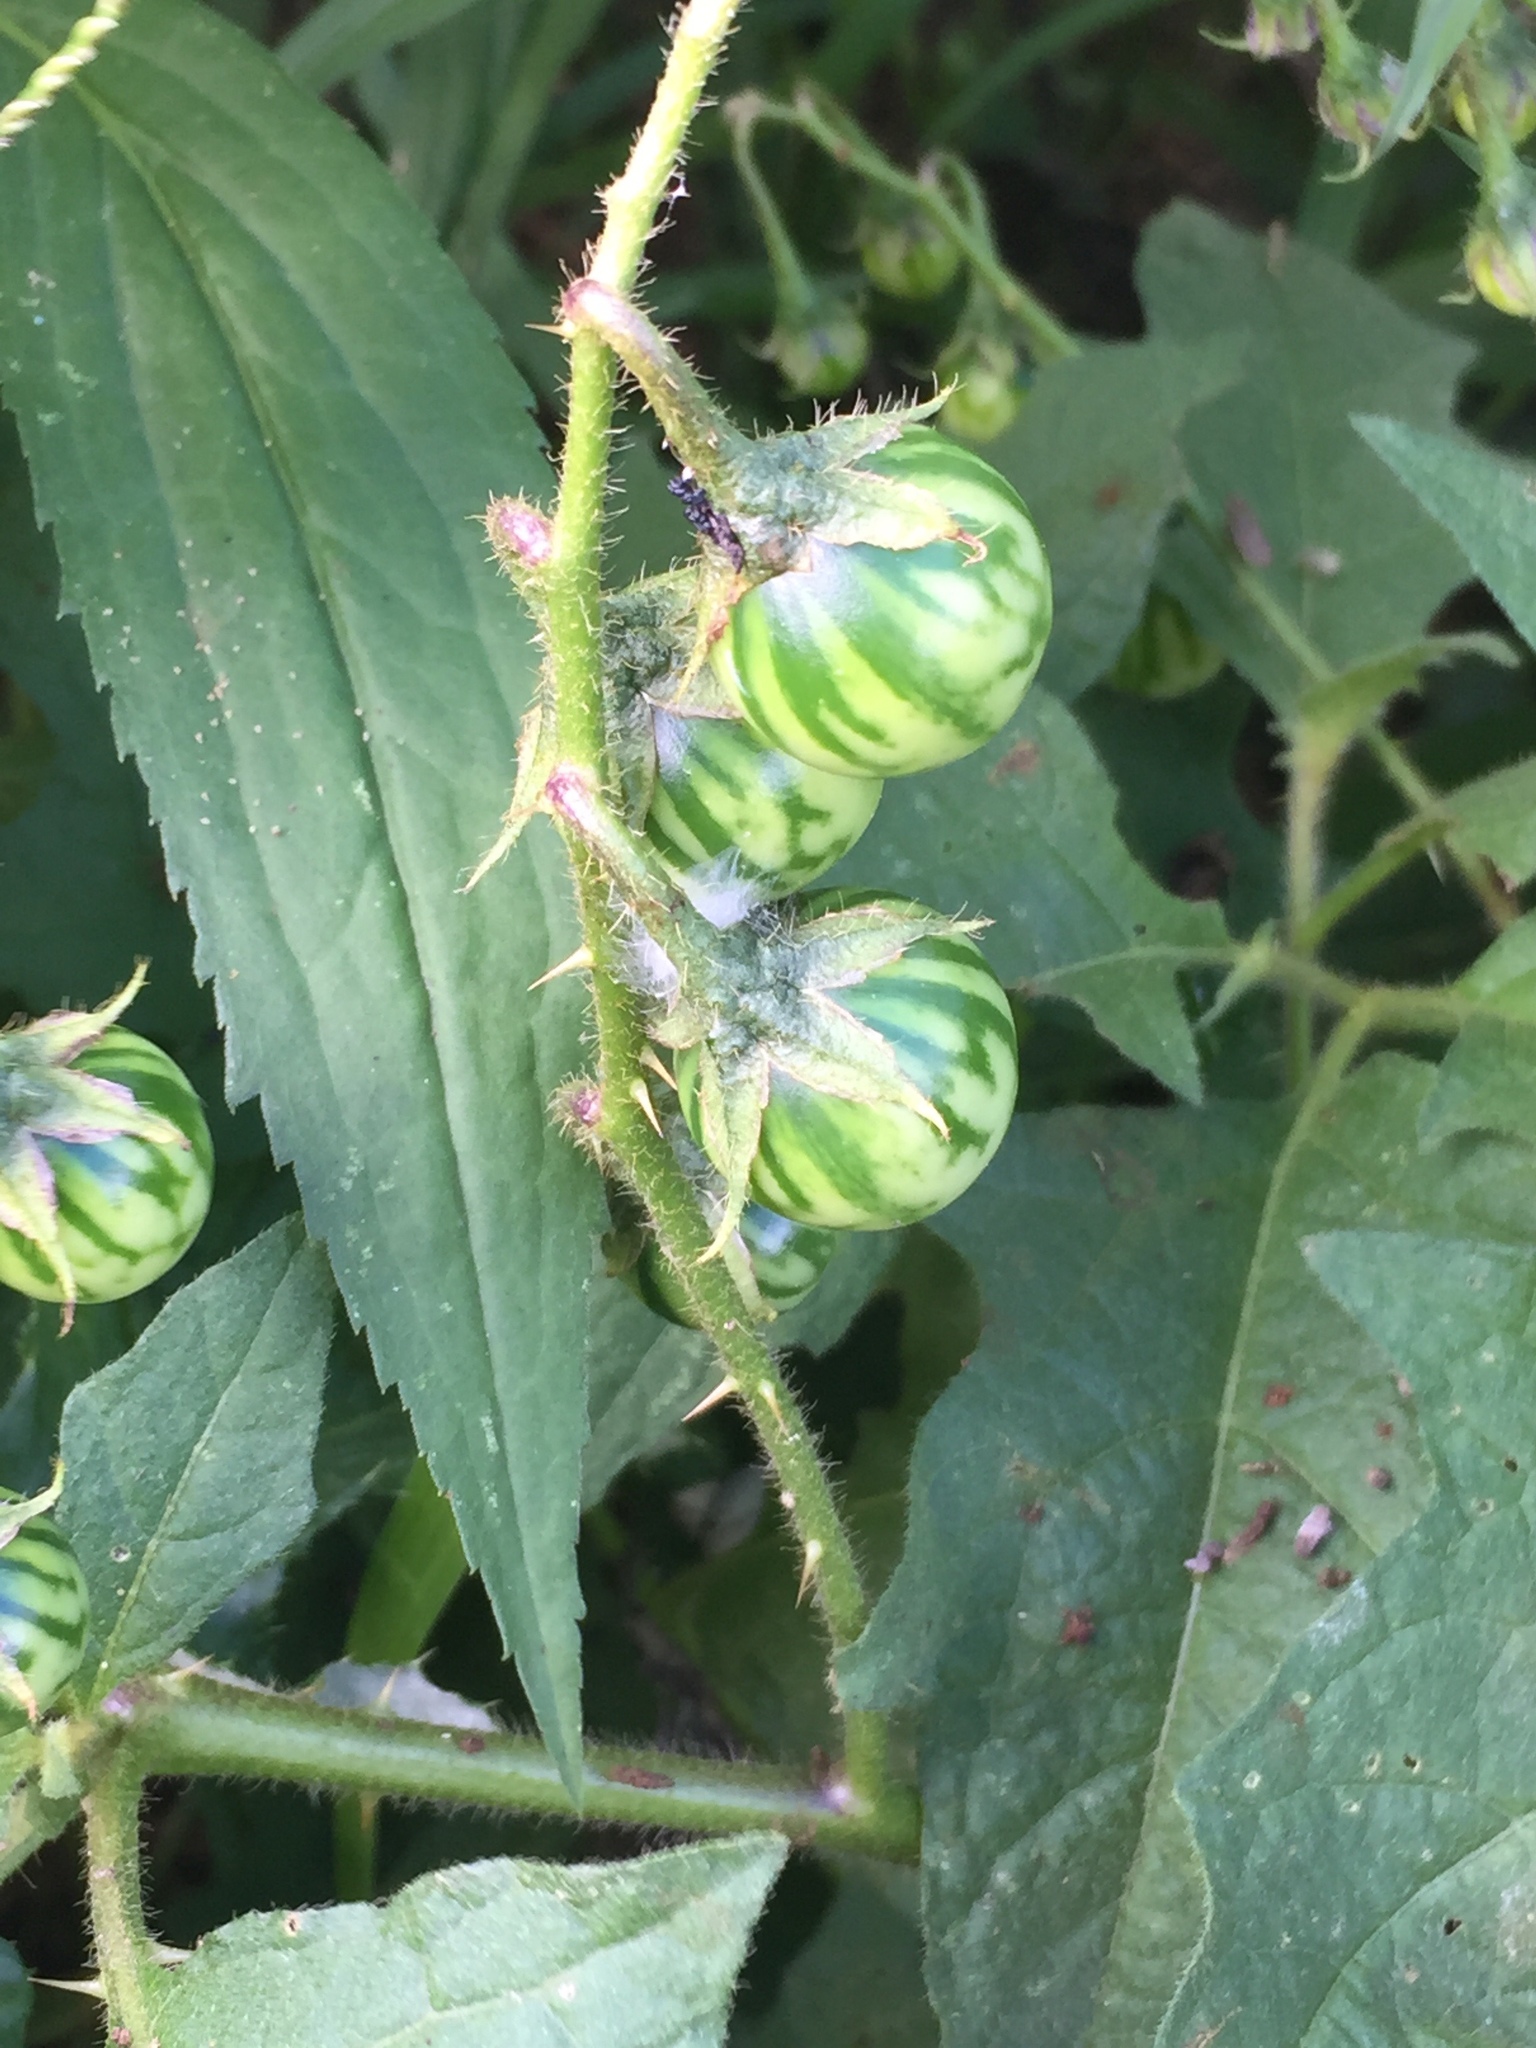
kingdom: Plantae
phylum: Tracheophyta
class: Magnoliopsida
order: Solanales
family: Solanaceae
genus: Solanum
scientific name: Solanum carolinense
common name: Horse-nettle
